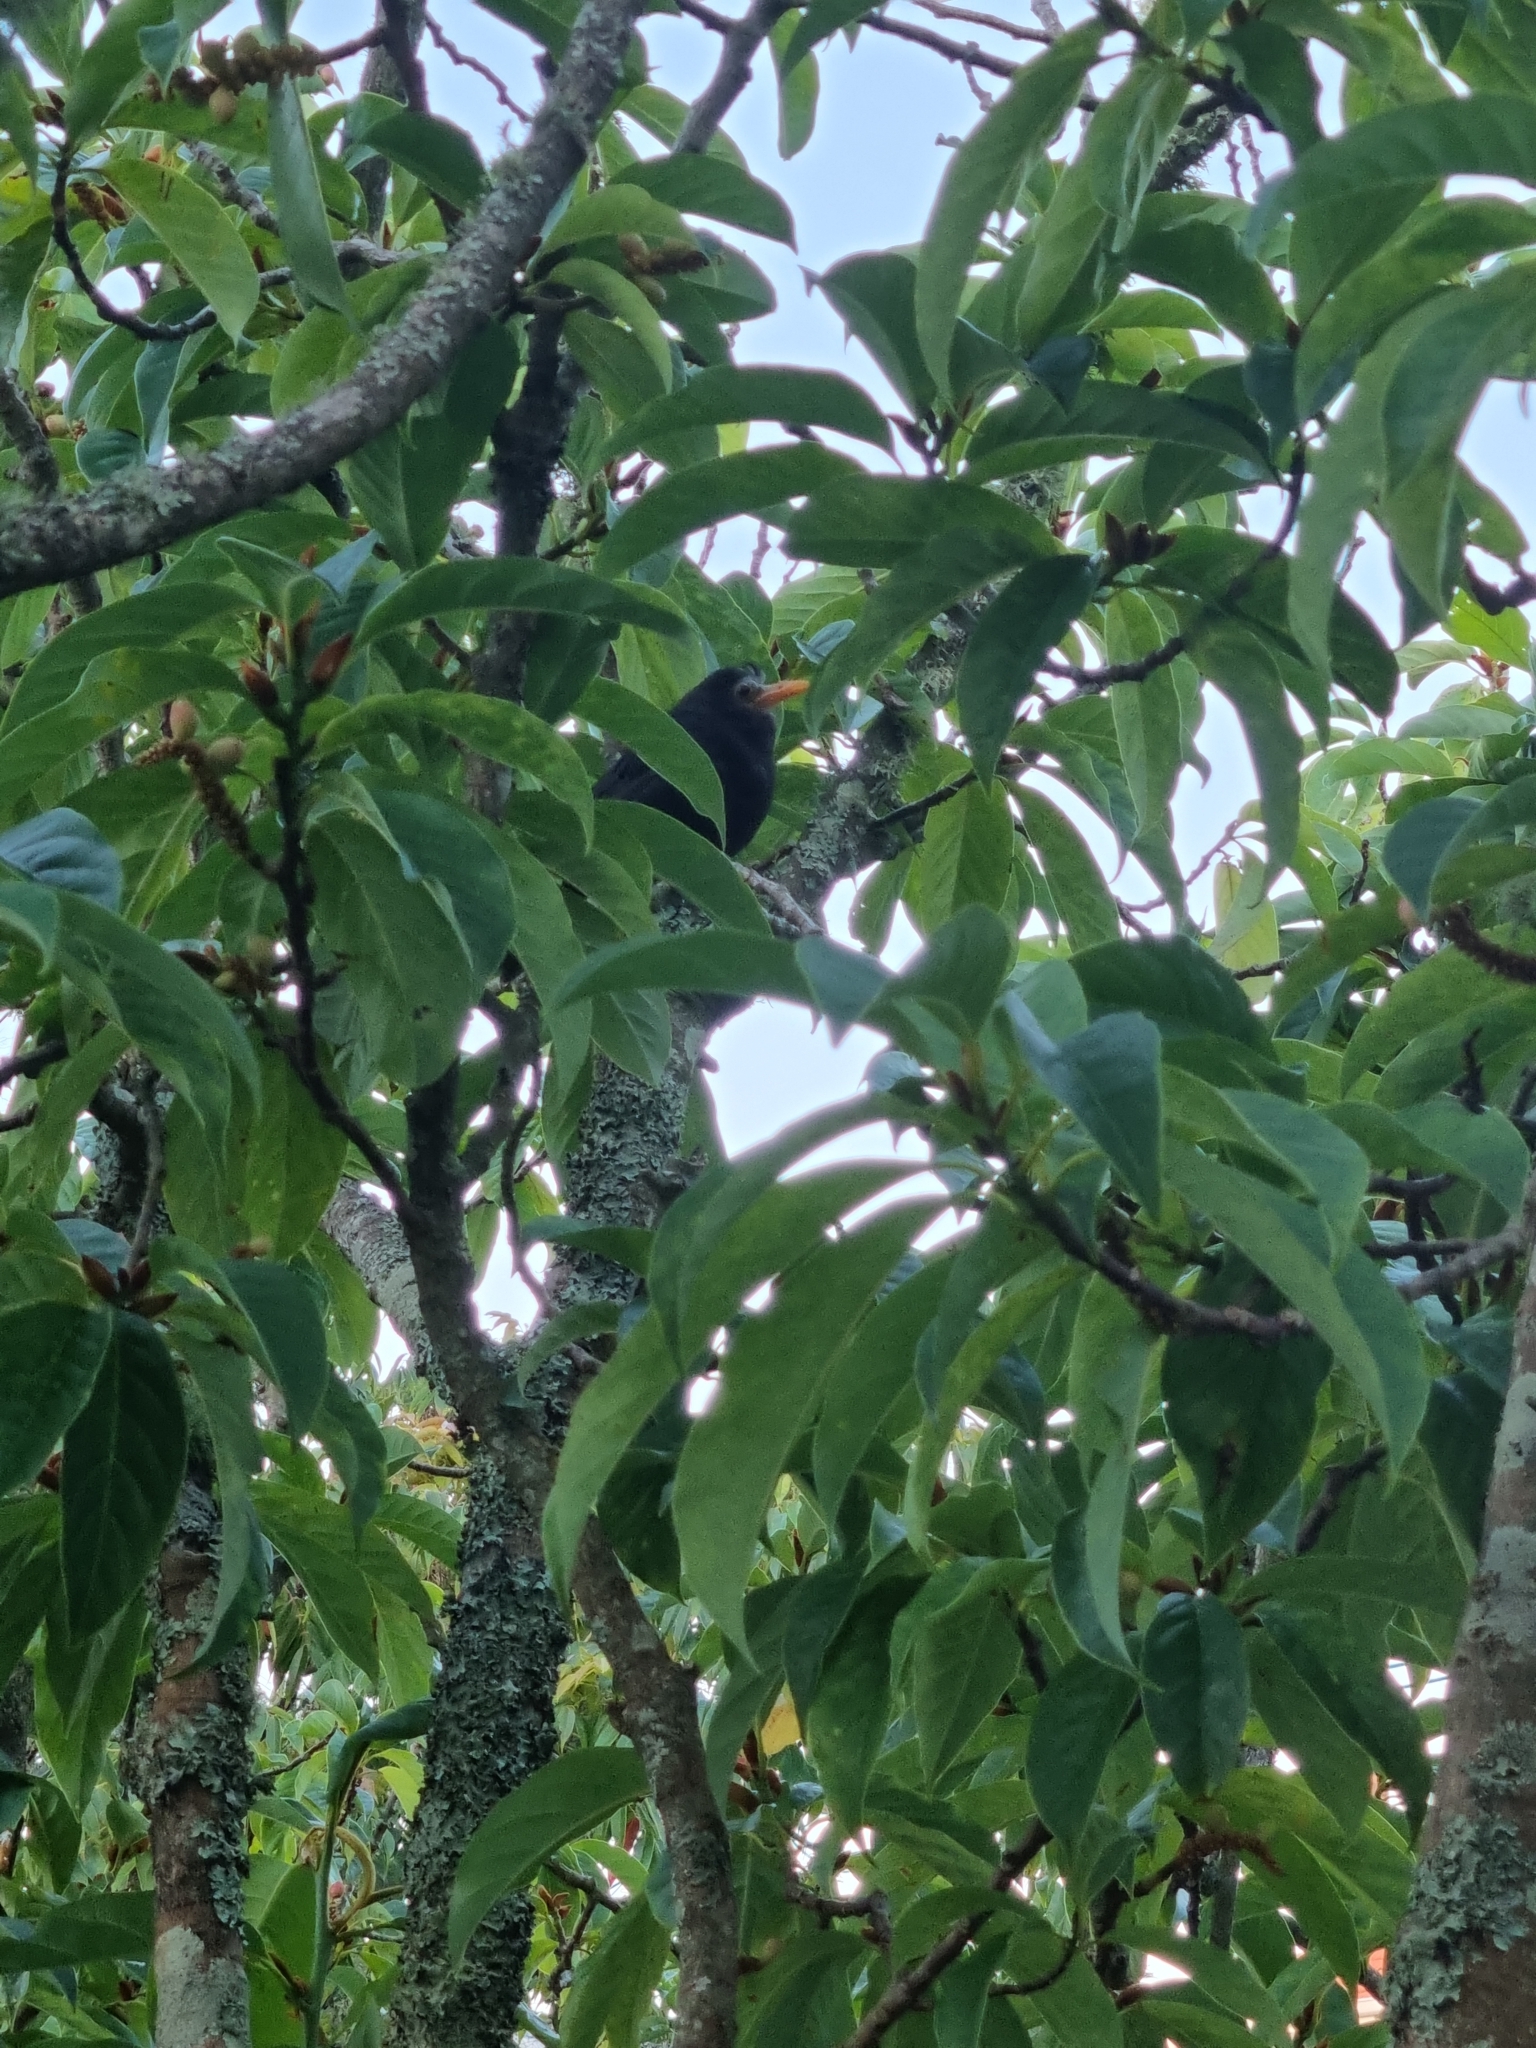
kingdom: Animalia
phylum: Chordata
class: Aves
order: Passeriformes
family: Turdidae
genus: Turdus
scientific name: Turdus merula
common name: Common blackbird
